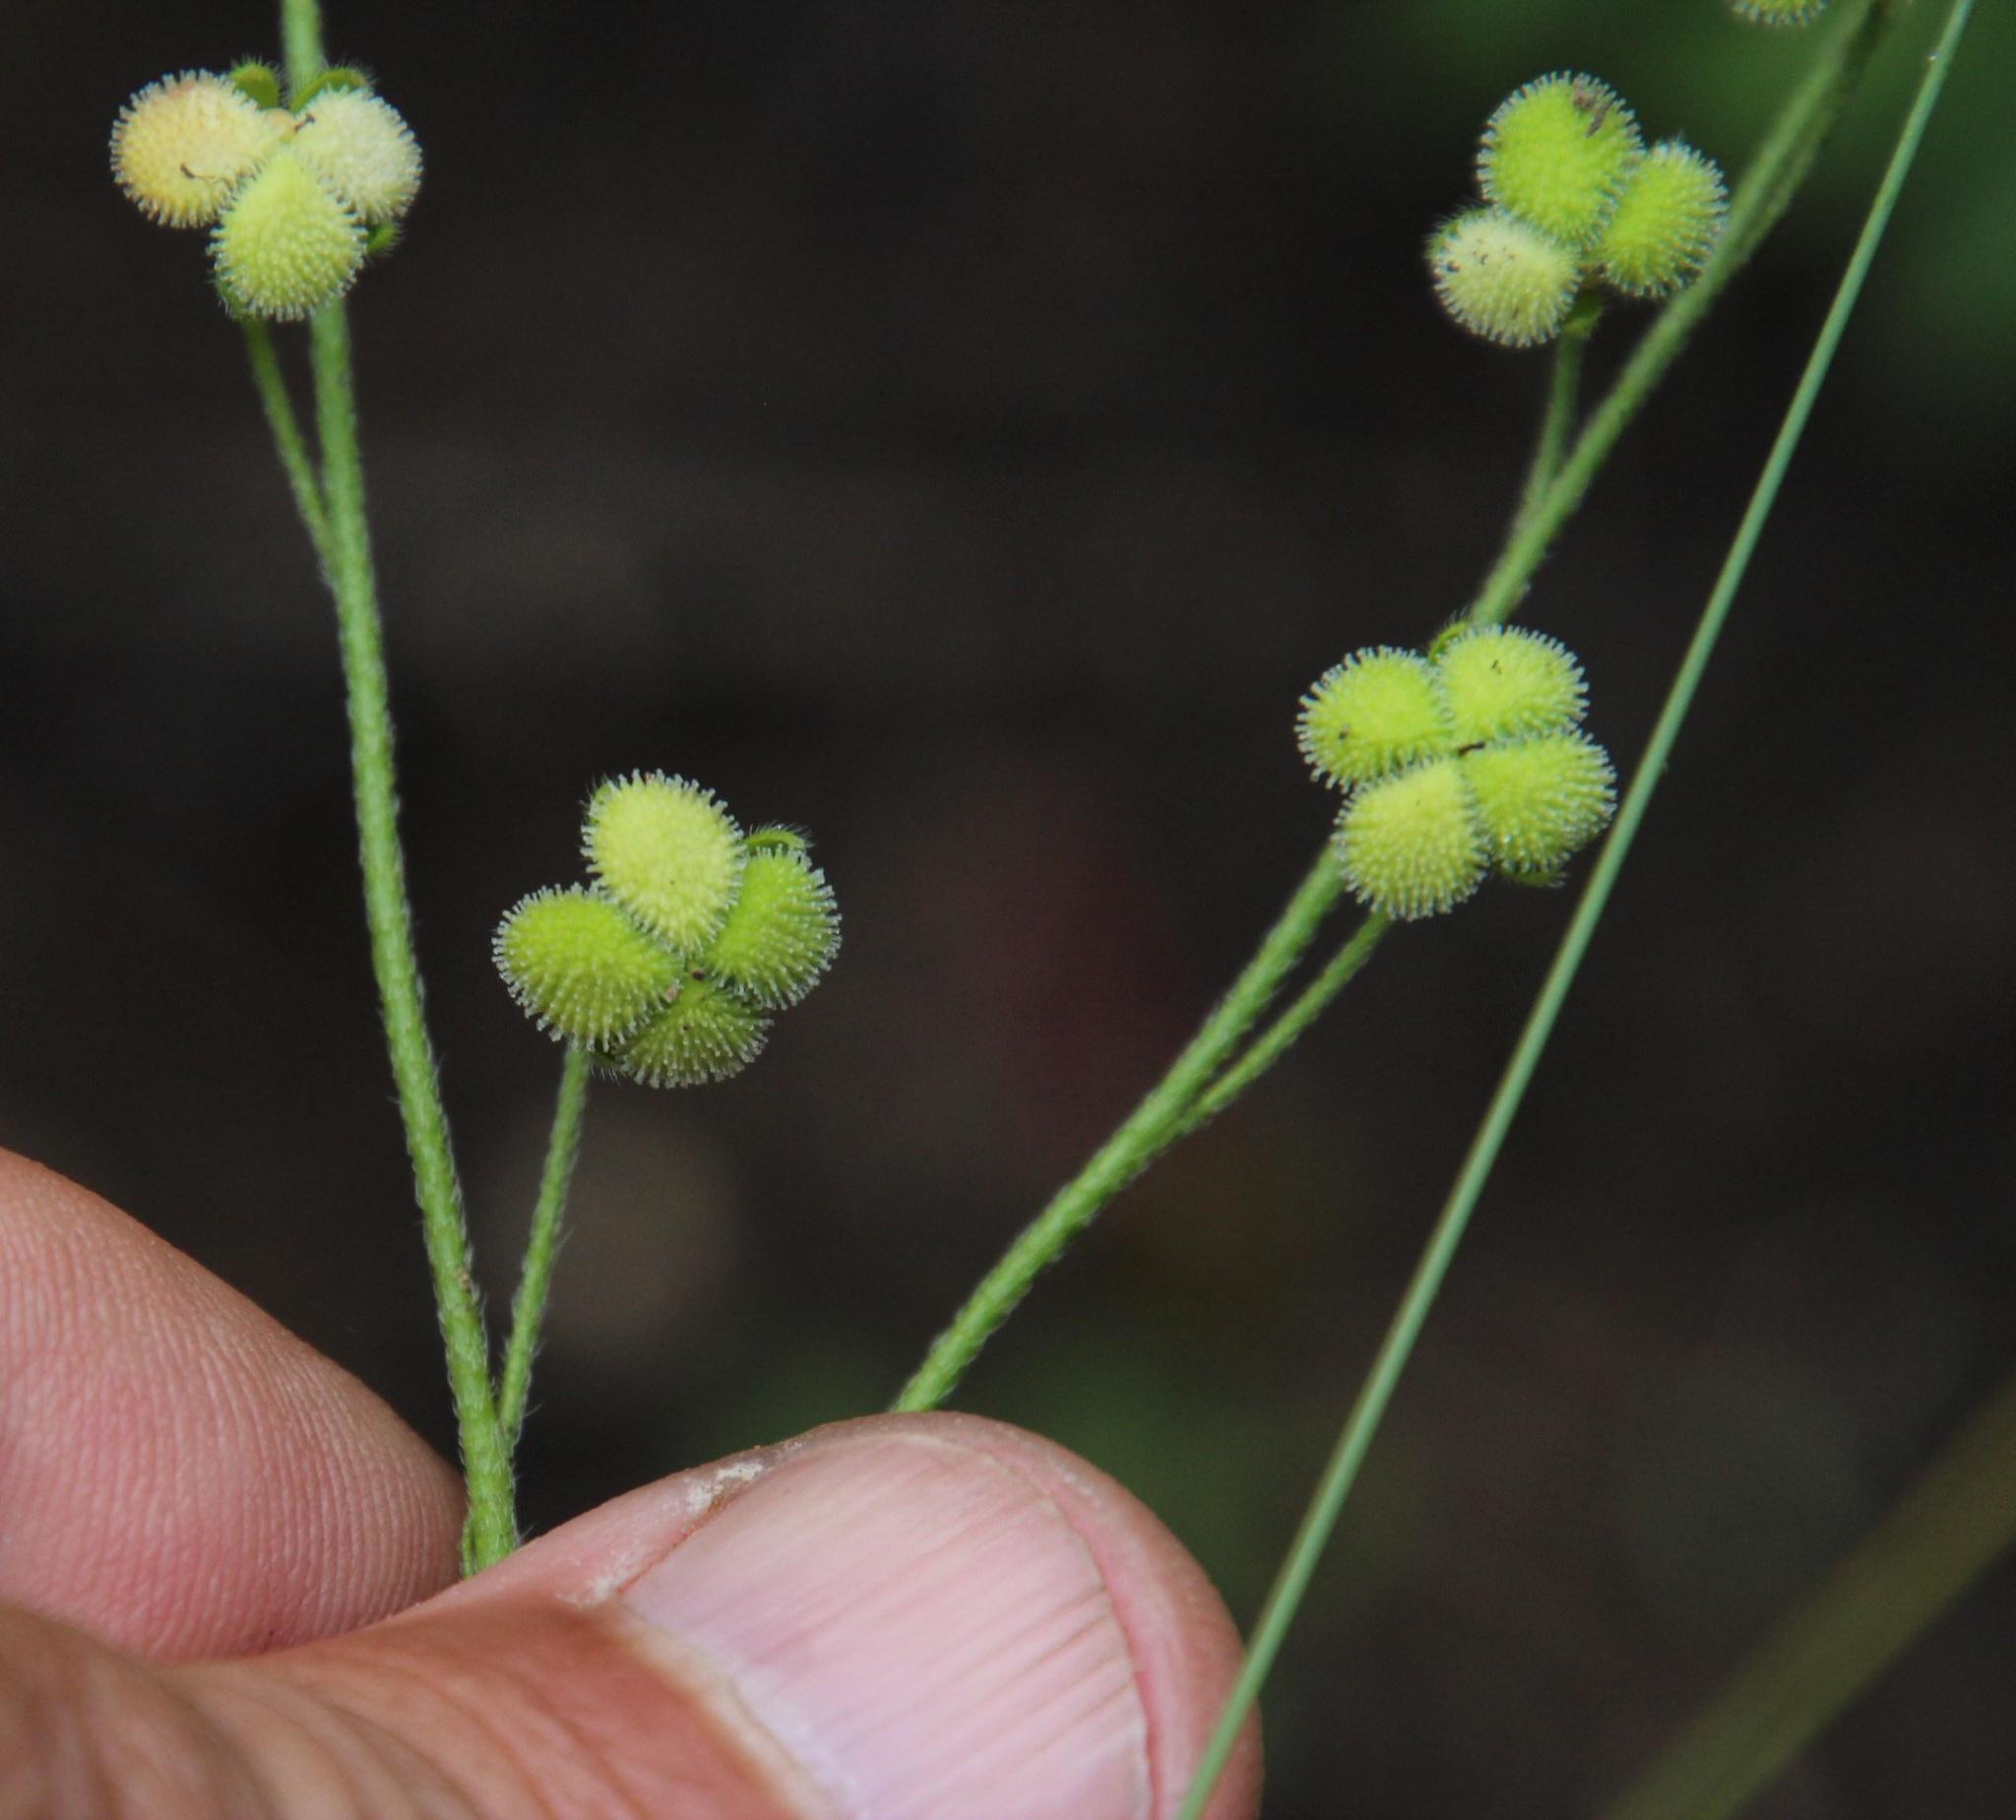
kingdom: Plantae
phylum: Tracheophyta
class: Magnoliopsida
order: Boraginales
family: Boraginaceae
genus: Cynoglossum
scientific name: Cynoglossum hispidum
